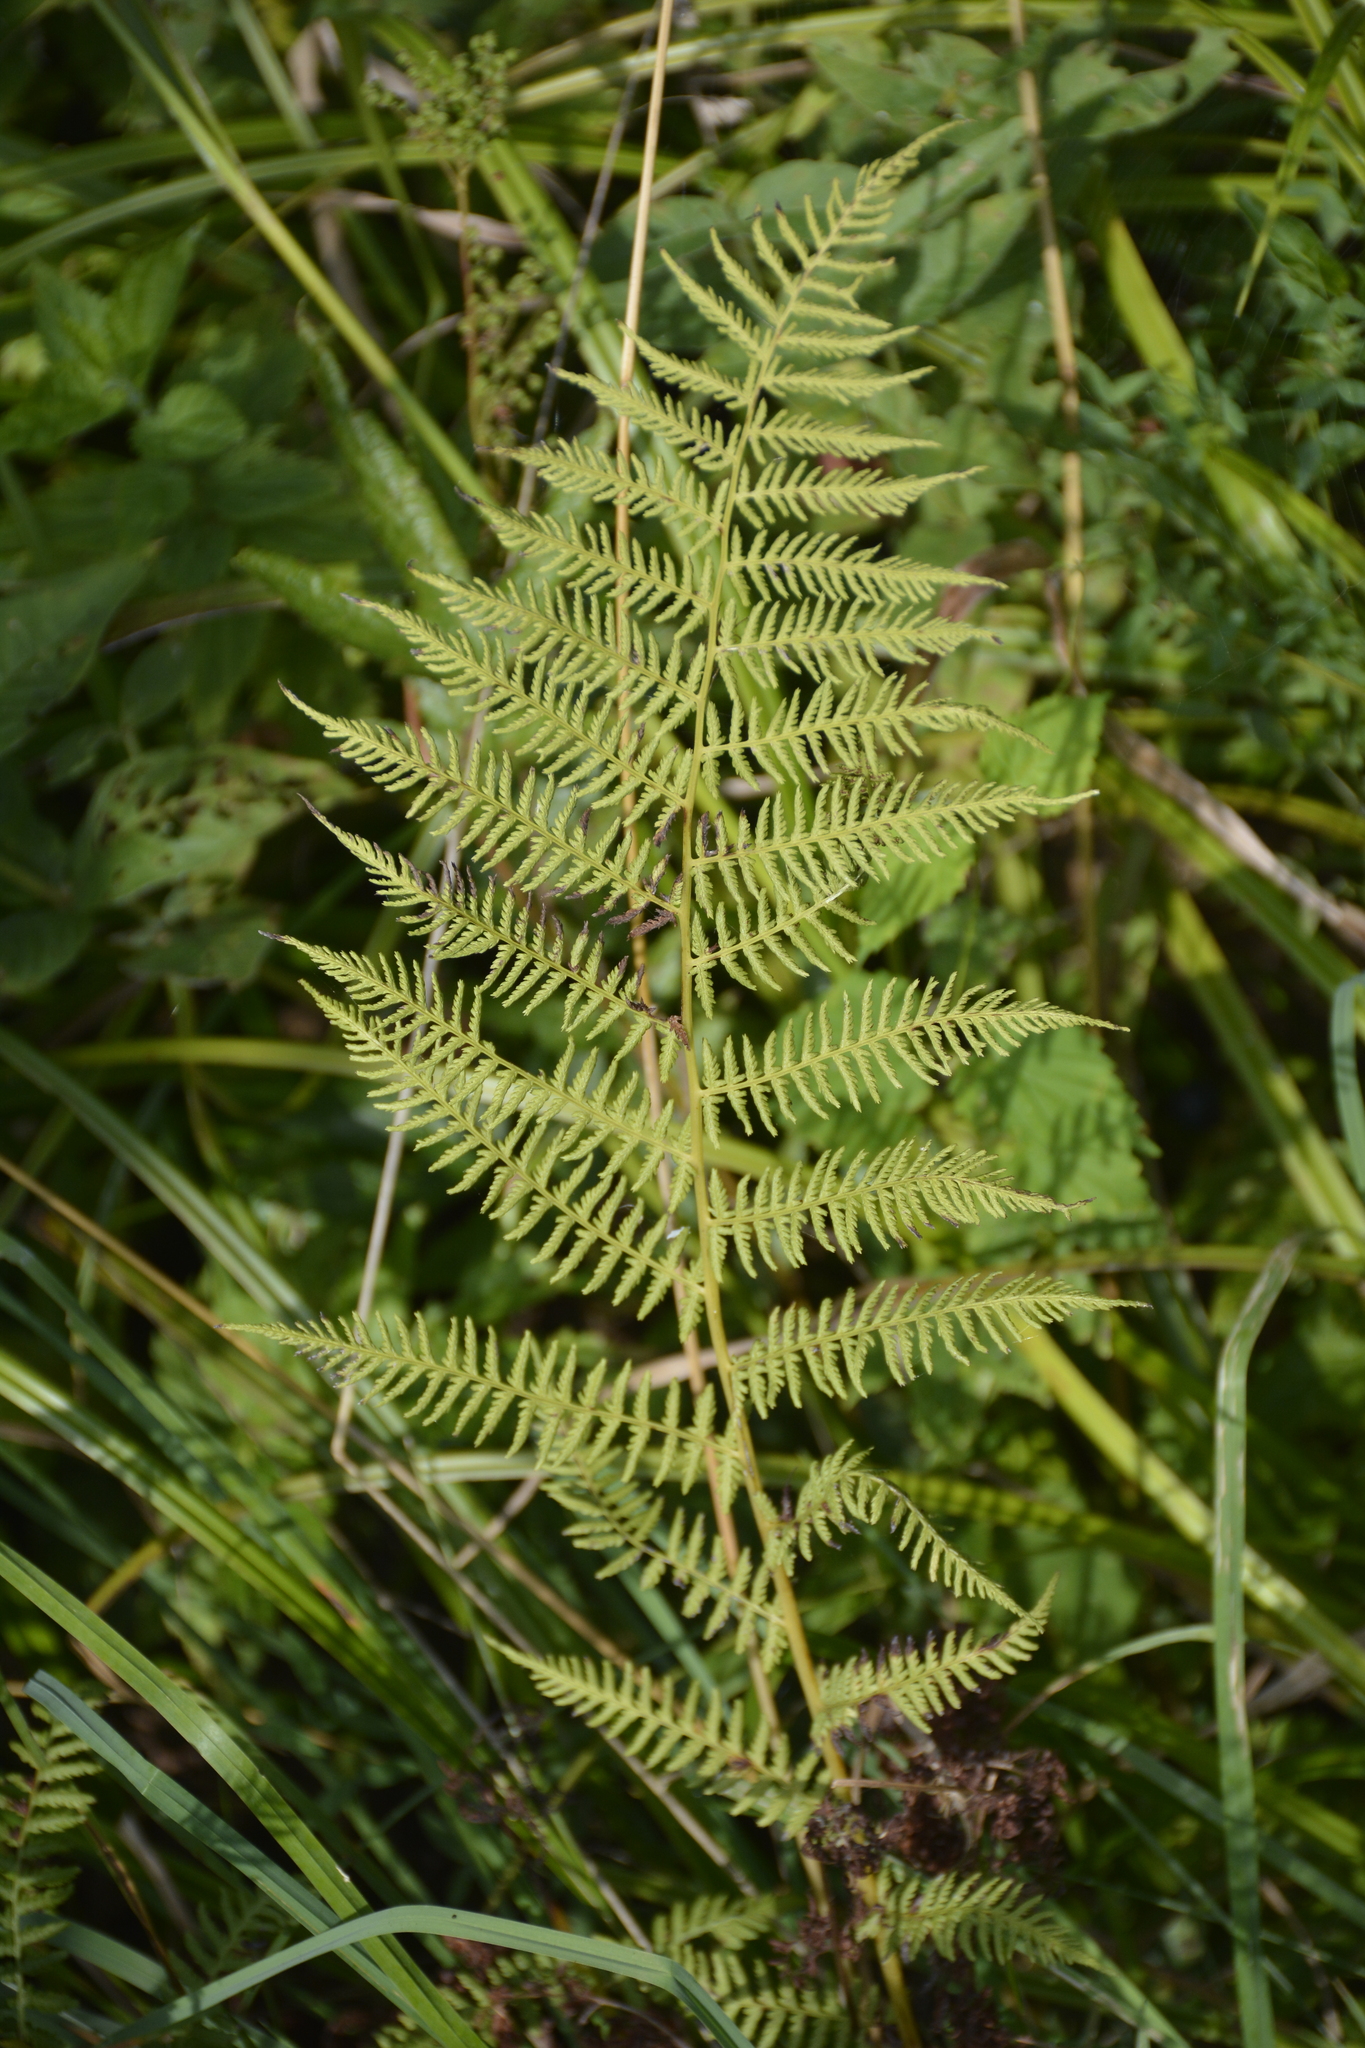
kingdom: Plantae
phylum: Tracheophyta
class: Polypodiopsida
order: Polypodiales
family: Athyriaceae
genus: Athyrium
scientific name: Athyrium filix-femina
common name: Lady fern
